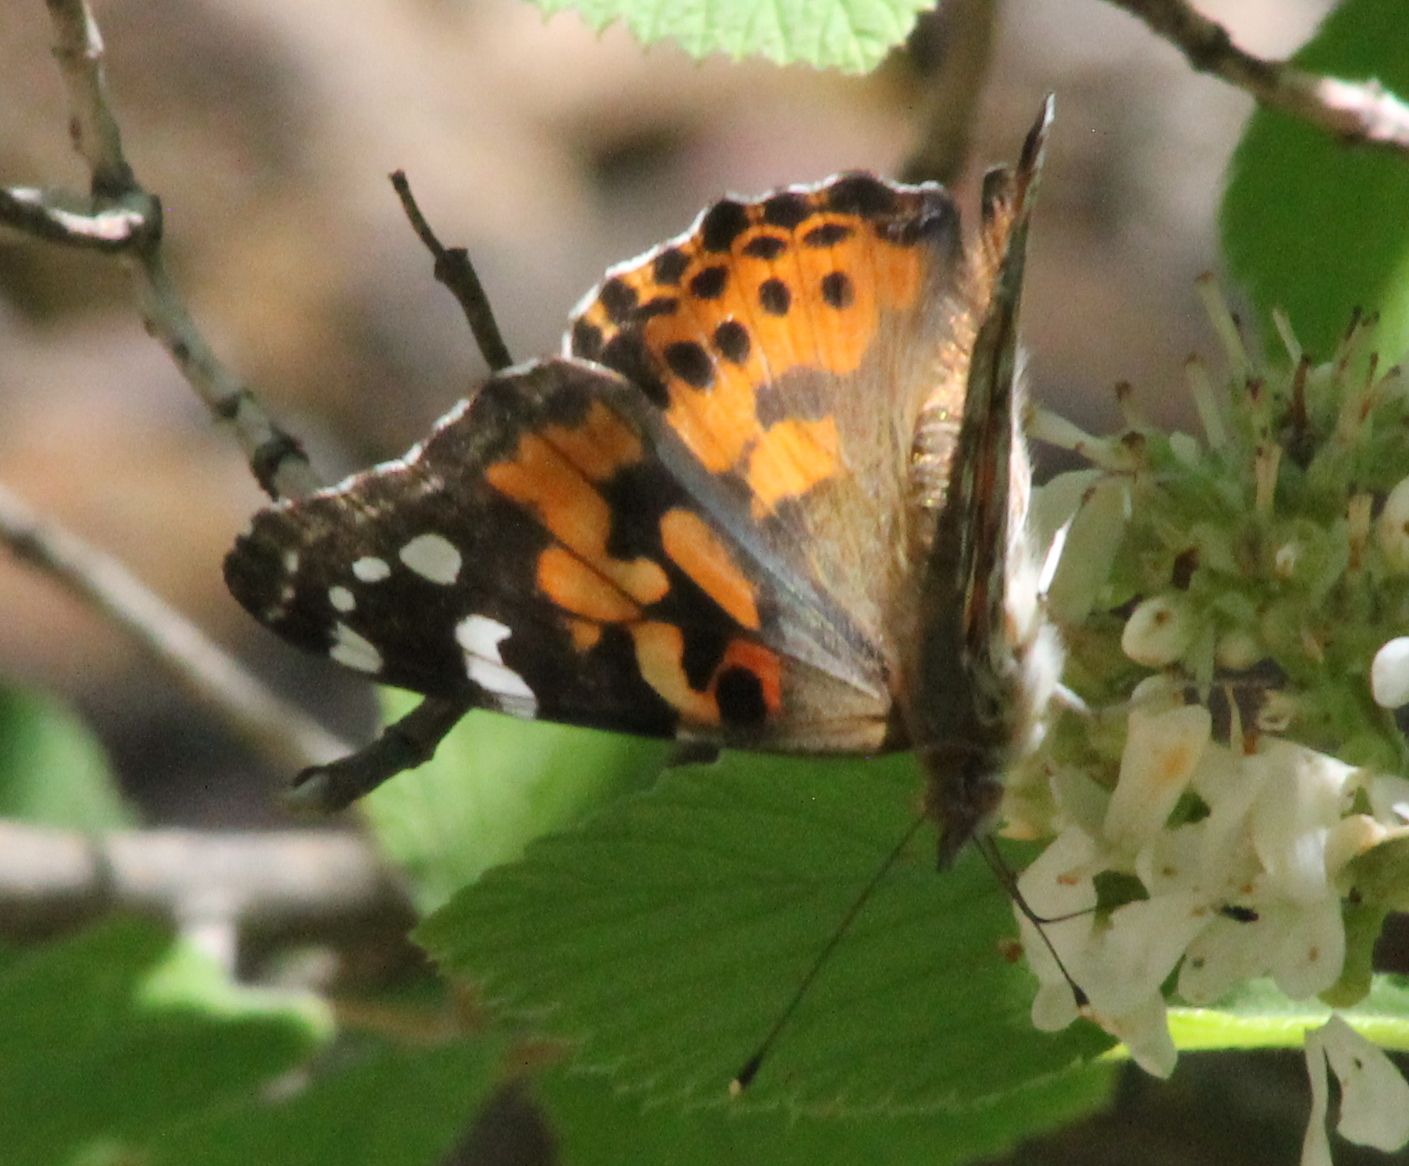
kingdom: Animalia
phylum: Arthropoda
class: Insecta
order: Lepidoptera
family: Nymphalidae
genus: Vanessa
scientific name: Vanessa cardui
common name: Painted lady
